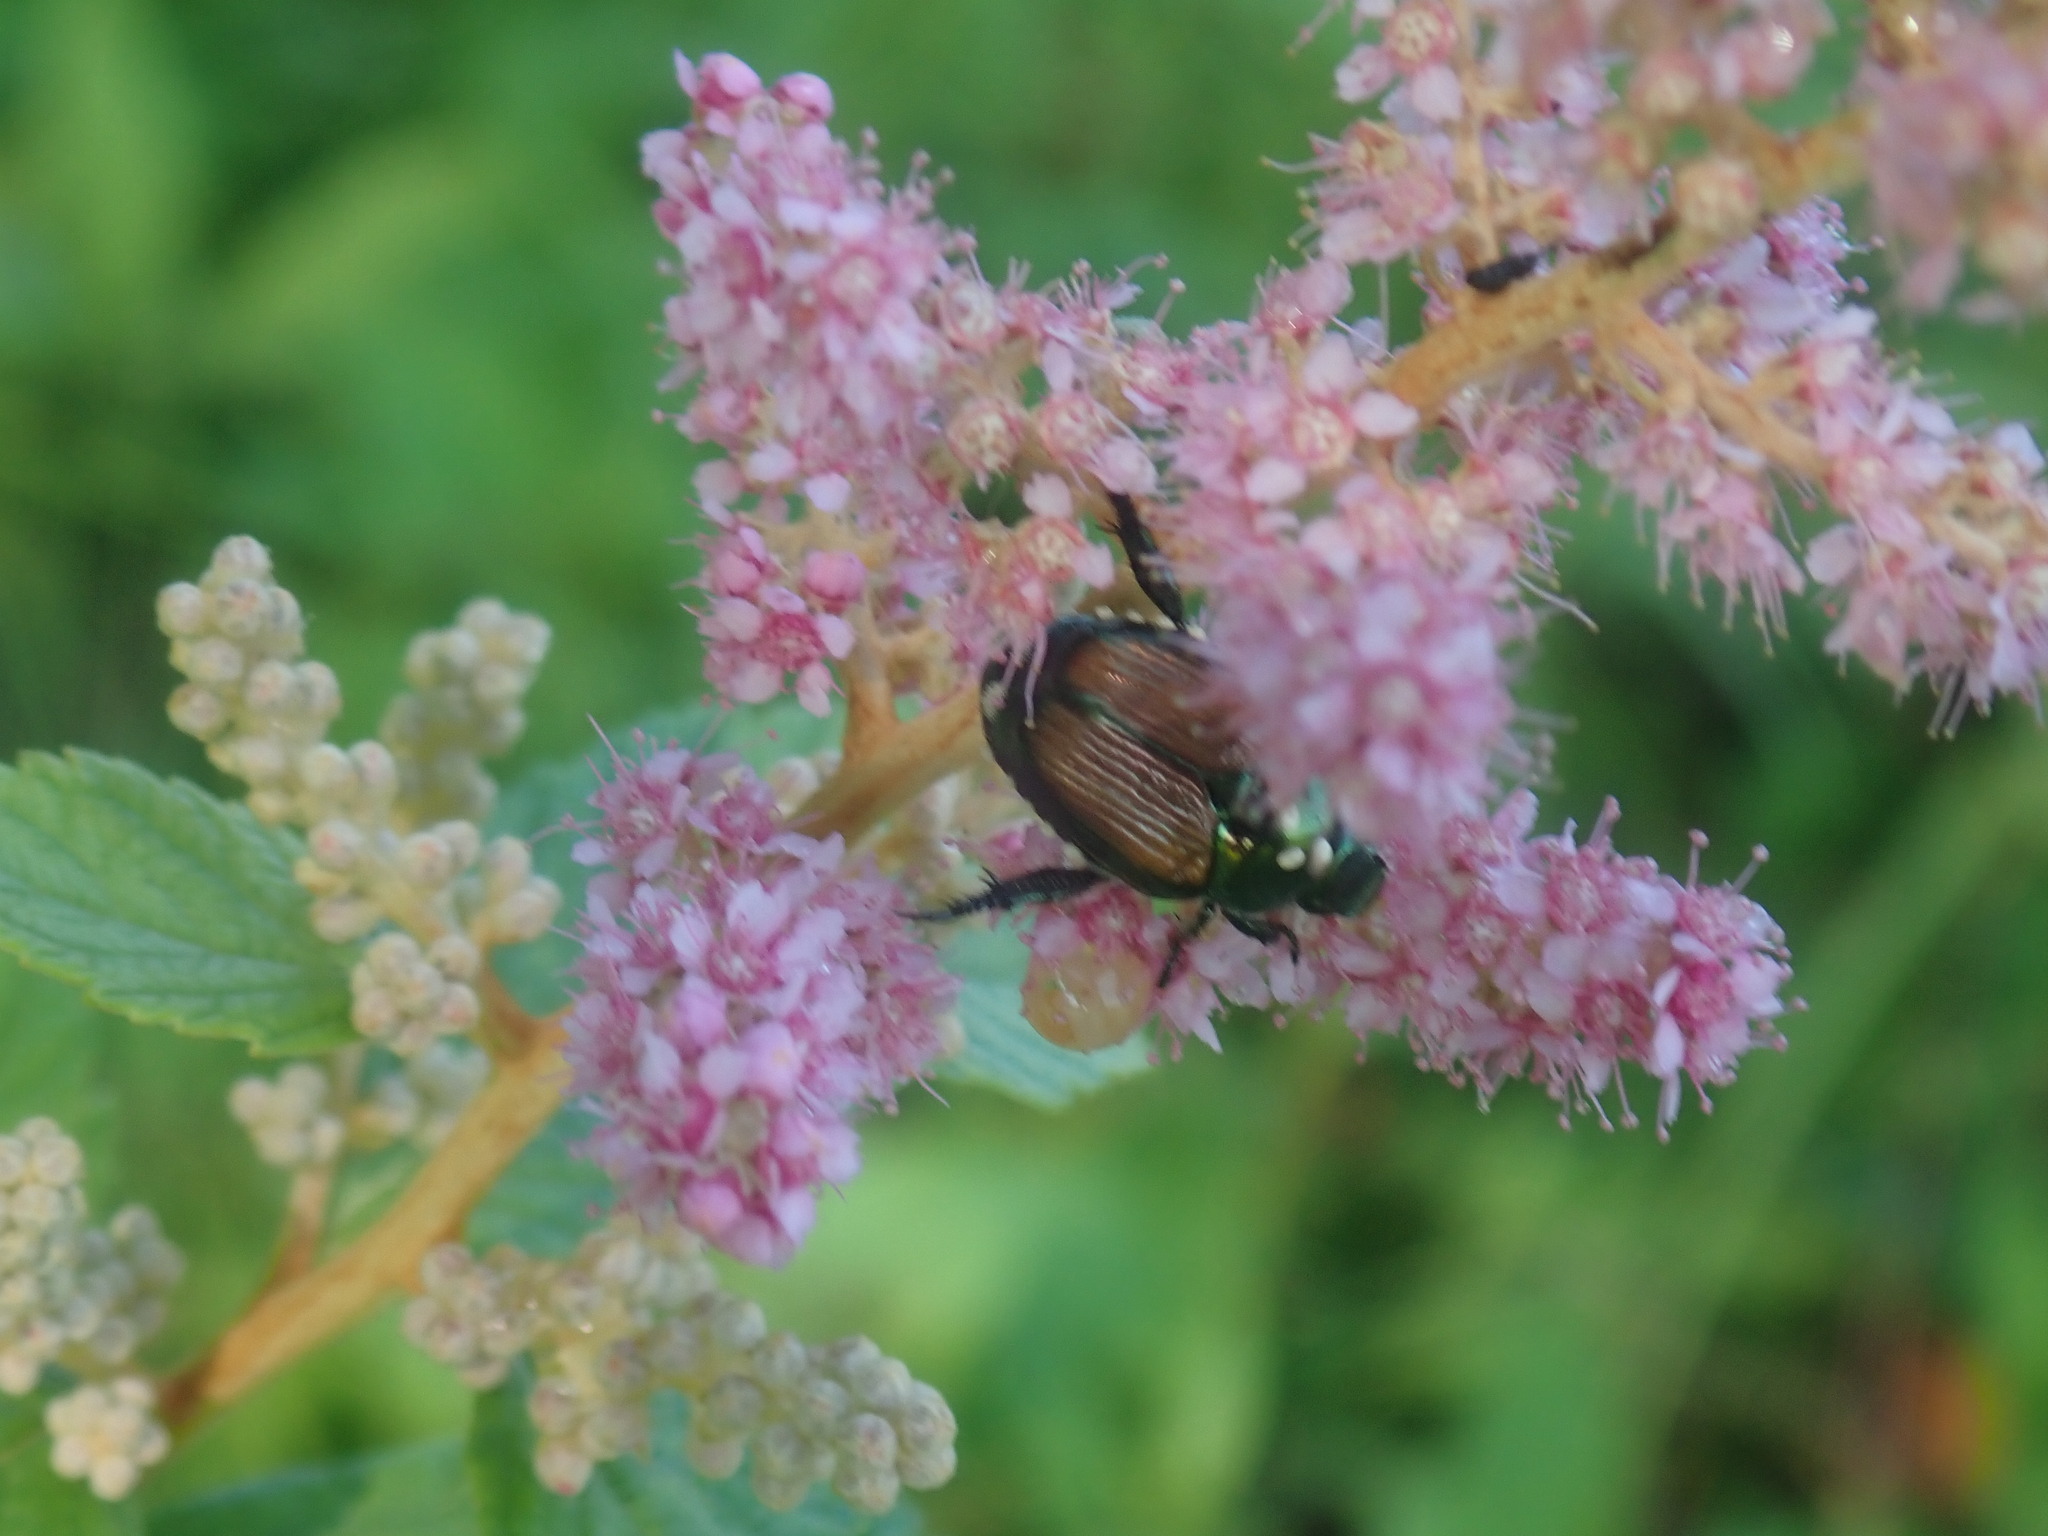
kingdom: Animalia
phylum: Arthropoda
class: Insecta
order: Diptera
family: Tachinidae
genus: Istocheta
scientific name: Istocheta aldrichi
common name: Parasitic wasp
